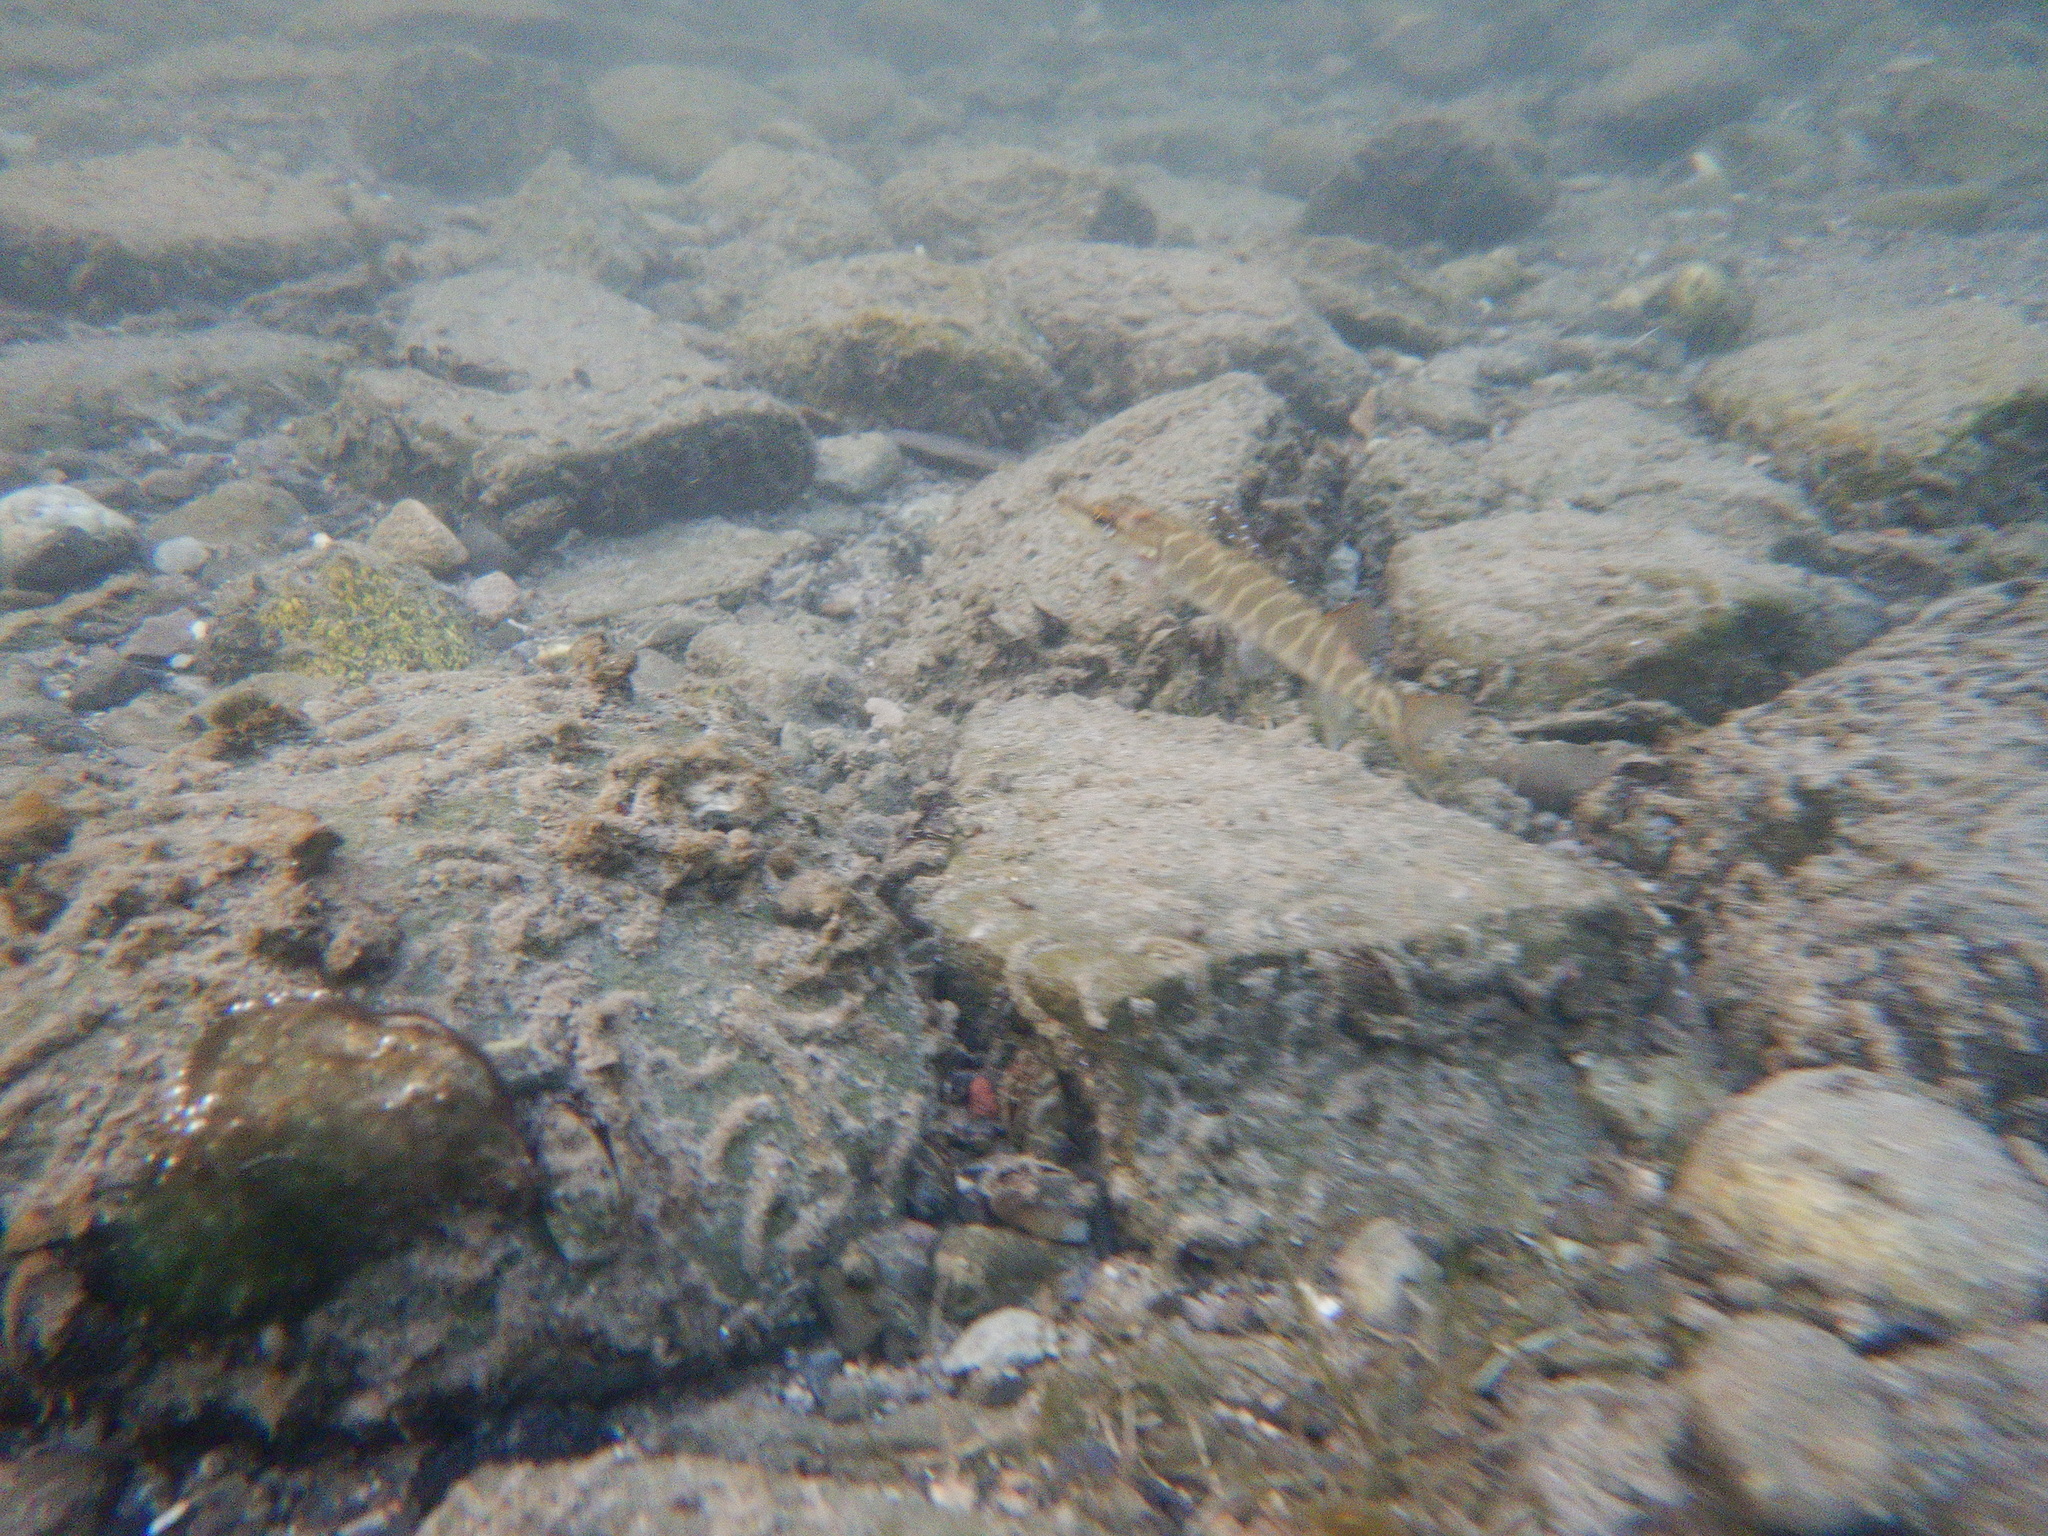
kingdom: Animalia
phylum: Chordata
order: Esociformes
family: Esocidae
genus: Esox
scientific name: Esox lucius
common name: Northern pike
